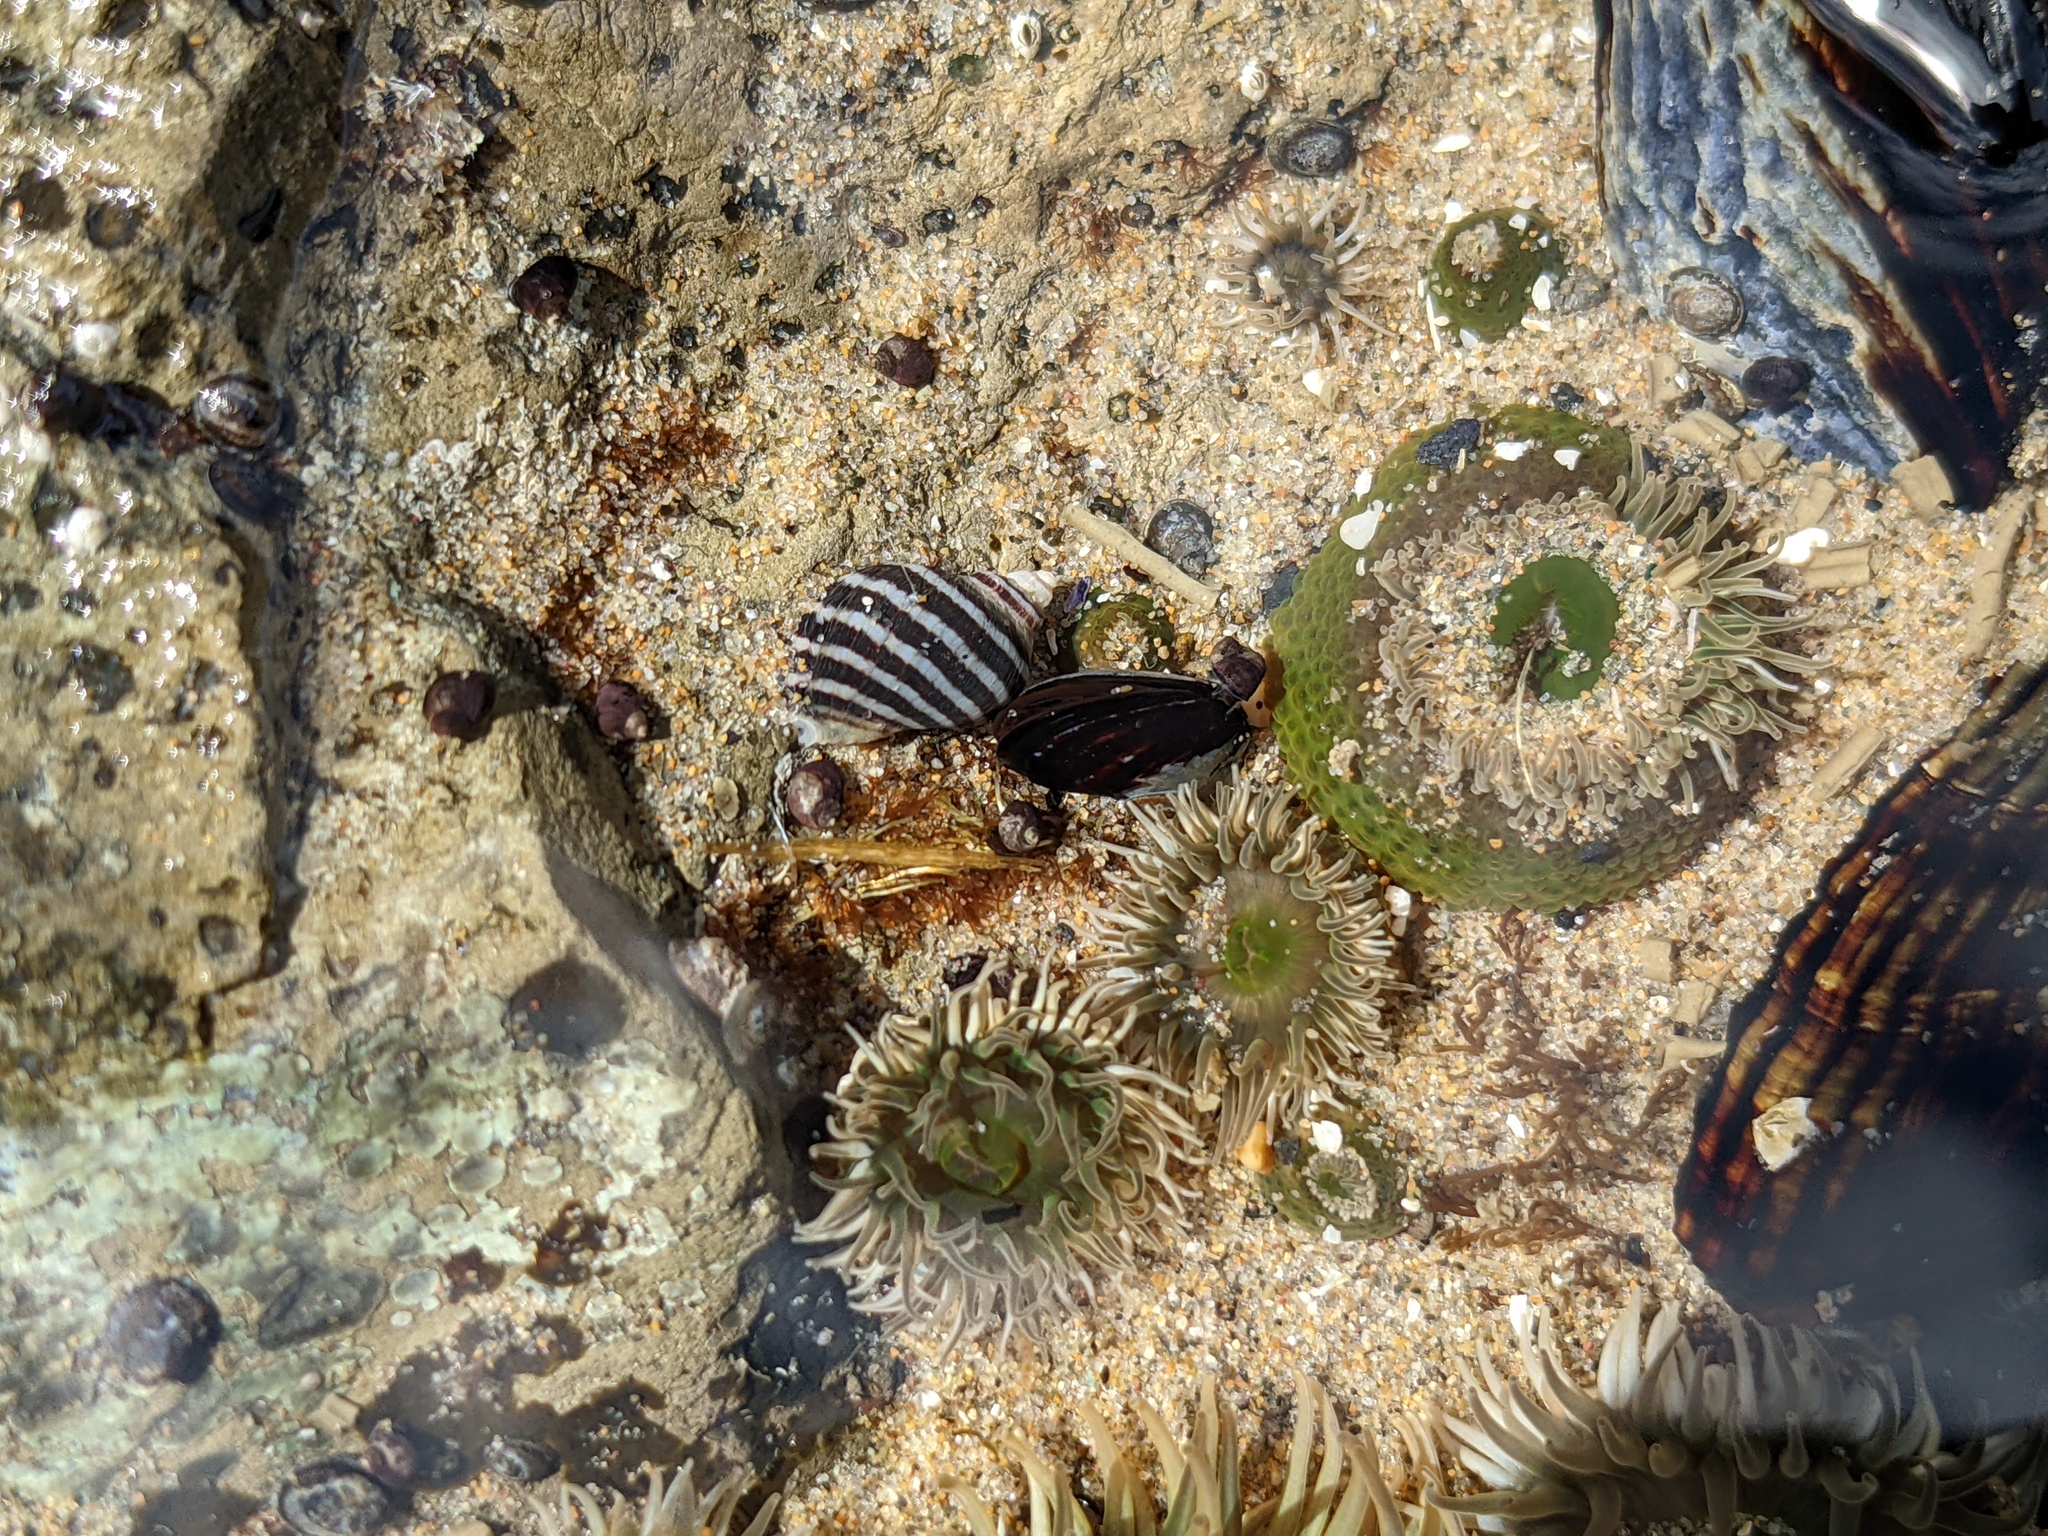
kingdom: Animalia
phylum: Mollusca
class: Gastropoda
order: Neogastropoda
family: Muricidae
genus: Nucella
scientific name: Nucella ostrina
